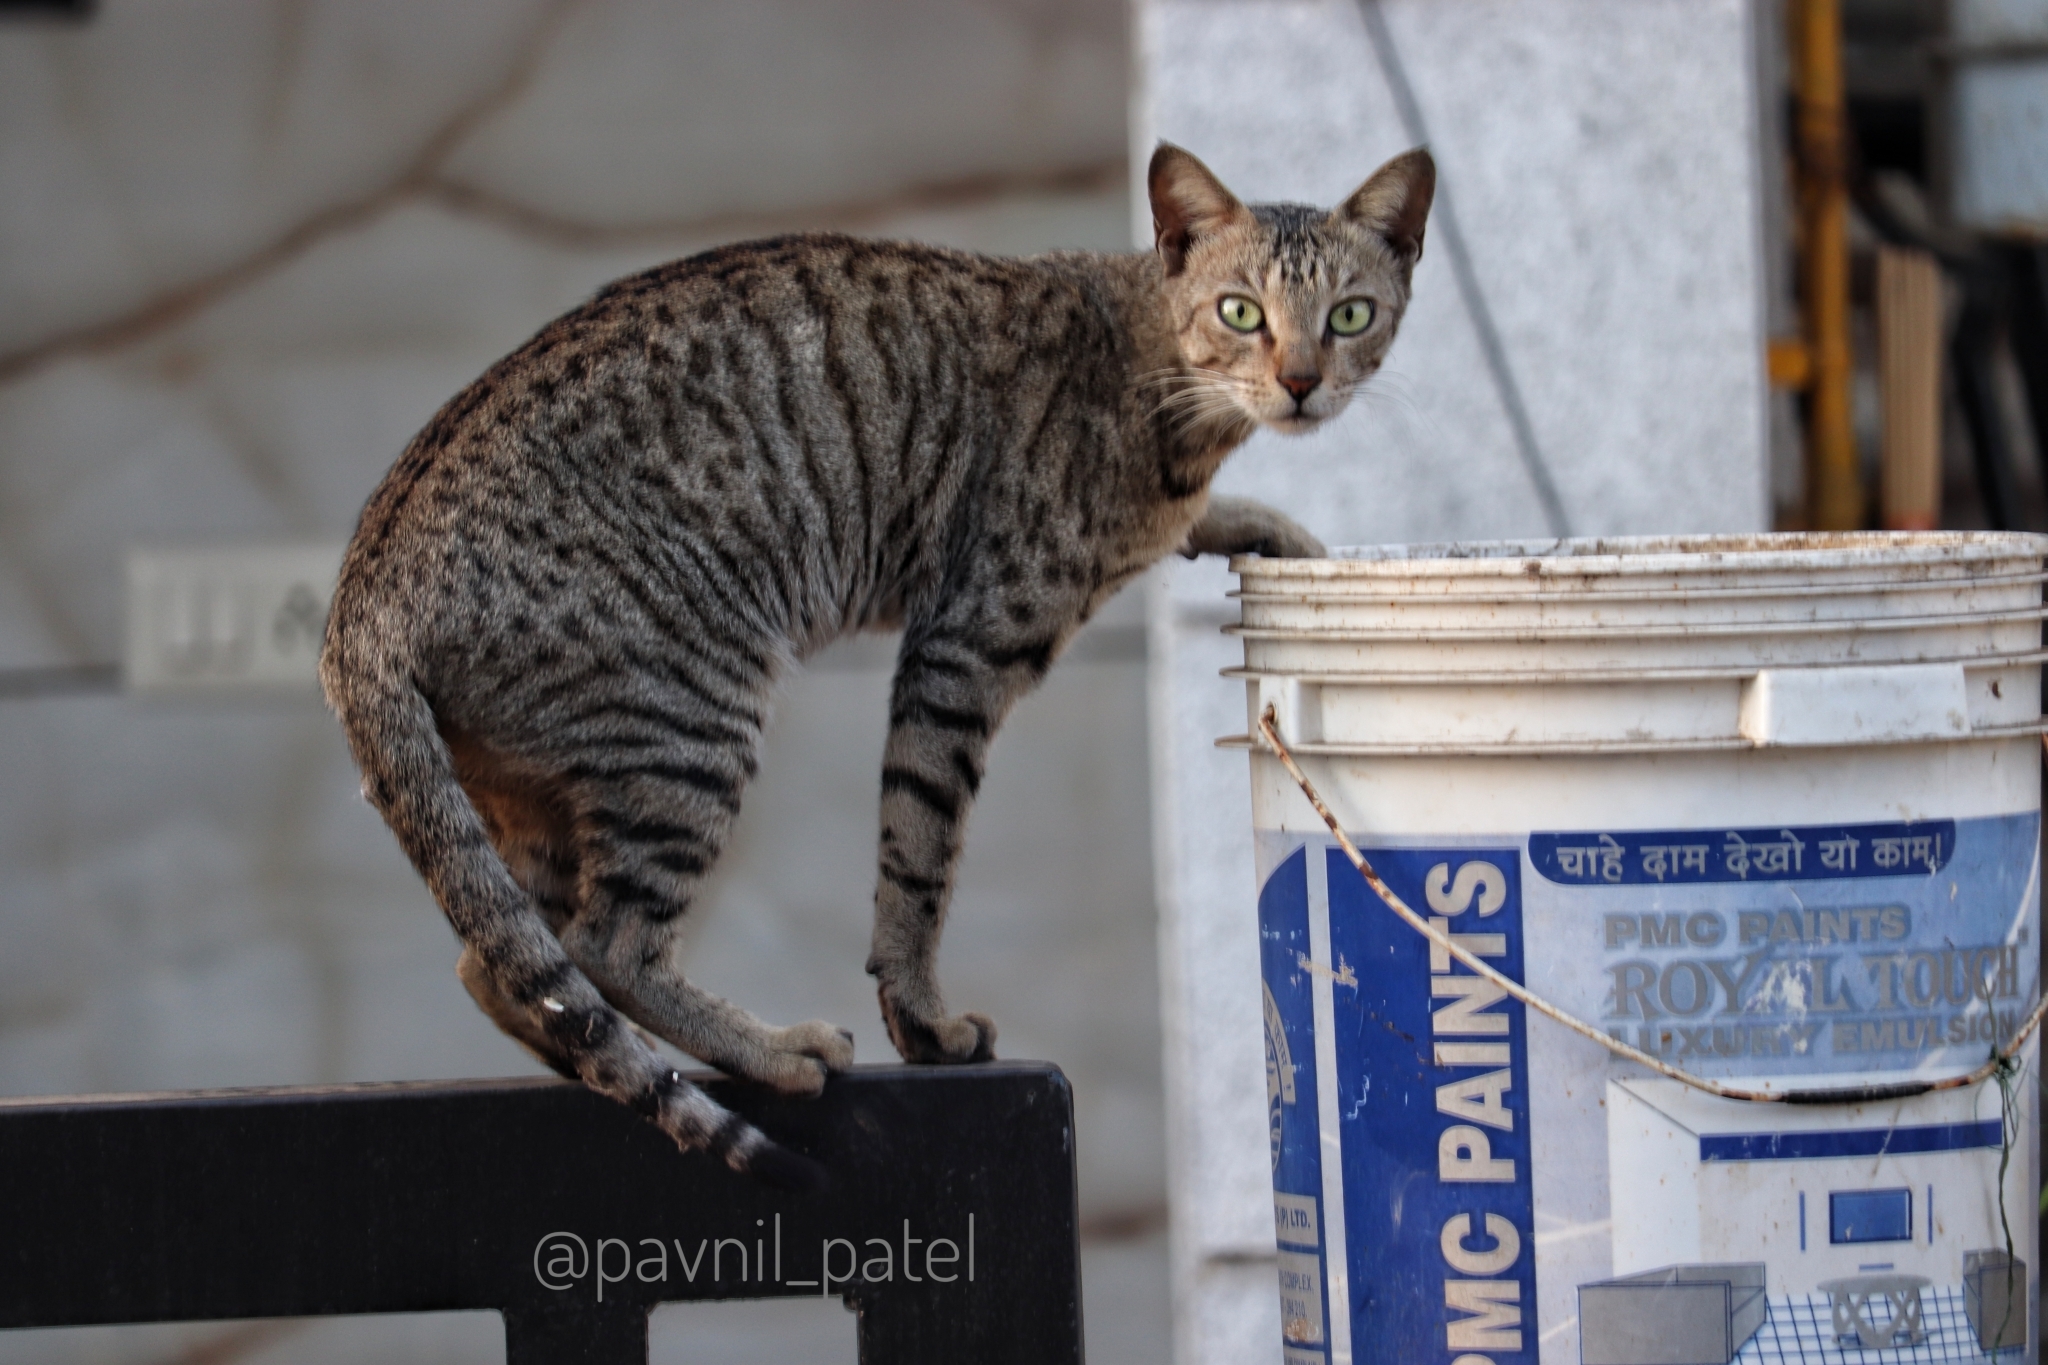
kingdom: Animalia
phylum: Chordata
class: Mammalia
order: Carnivora
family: Felidae
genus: Felis
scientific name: Felis catus
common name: Domestic cat
